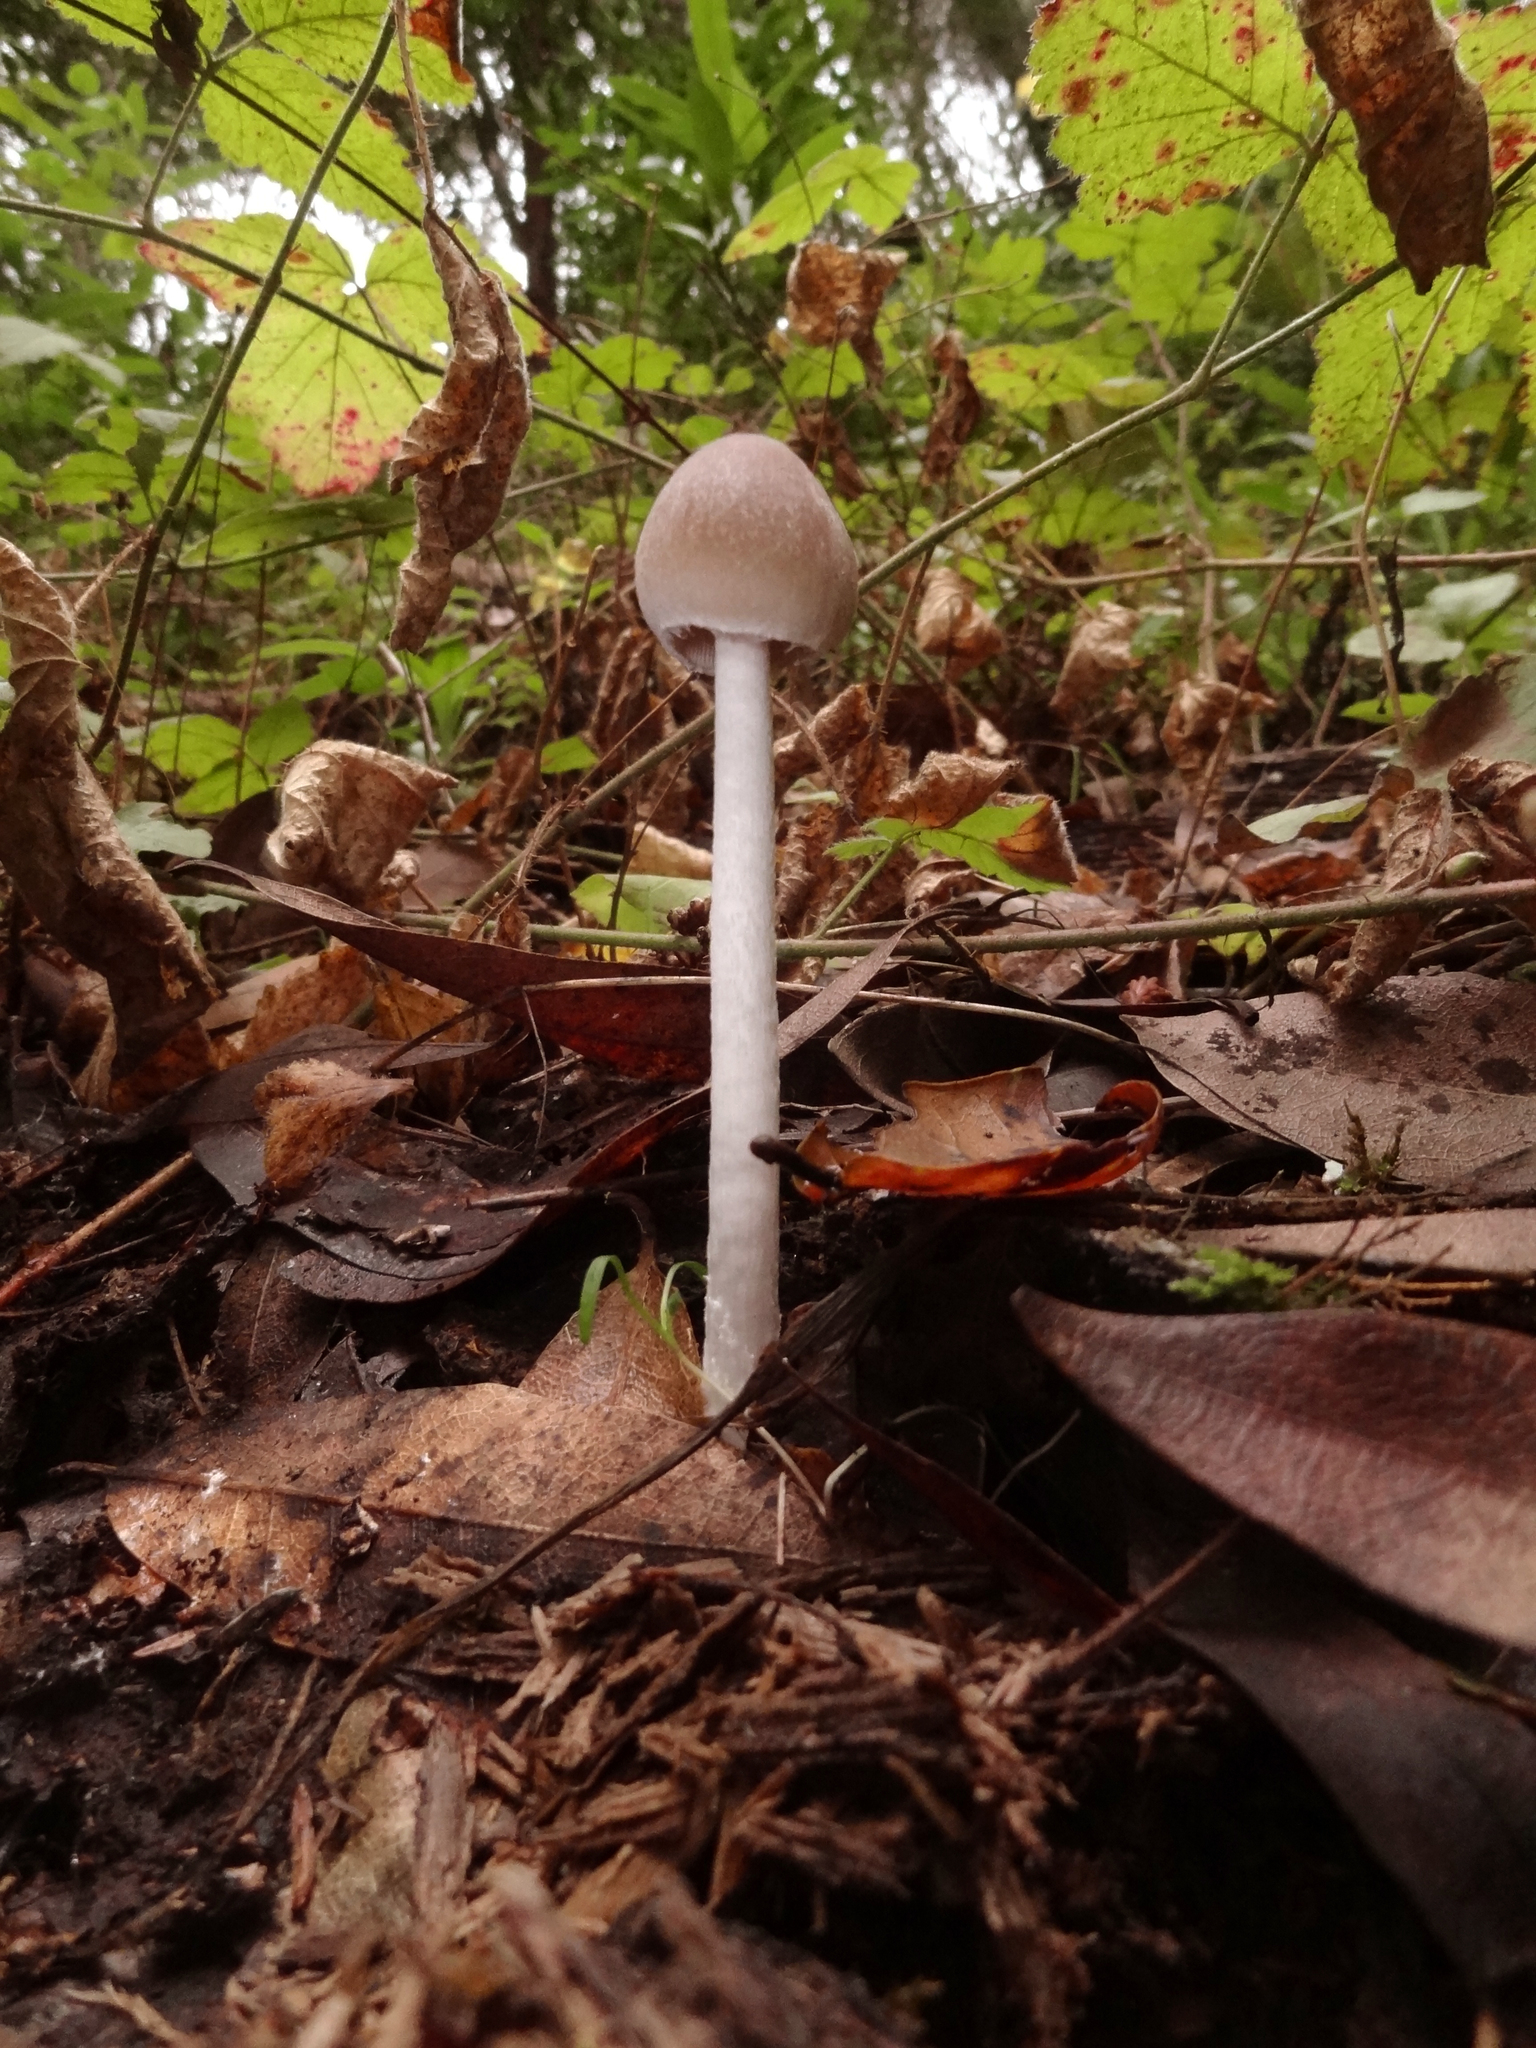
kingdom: Fungi
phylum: Basidiomycota
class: Agaricomycetes
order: Agaricales
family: Psathyrellaceae
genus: Psathyrella
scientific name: Psathyrella longipes
